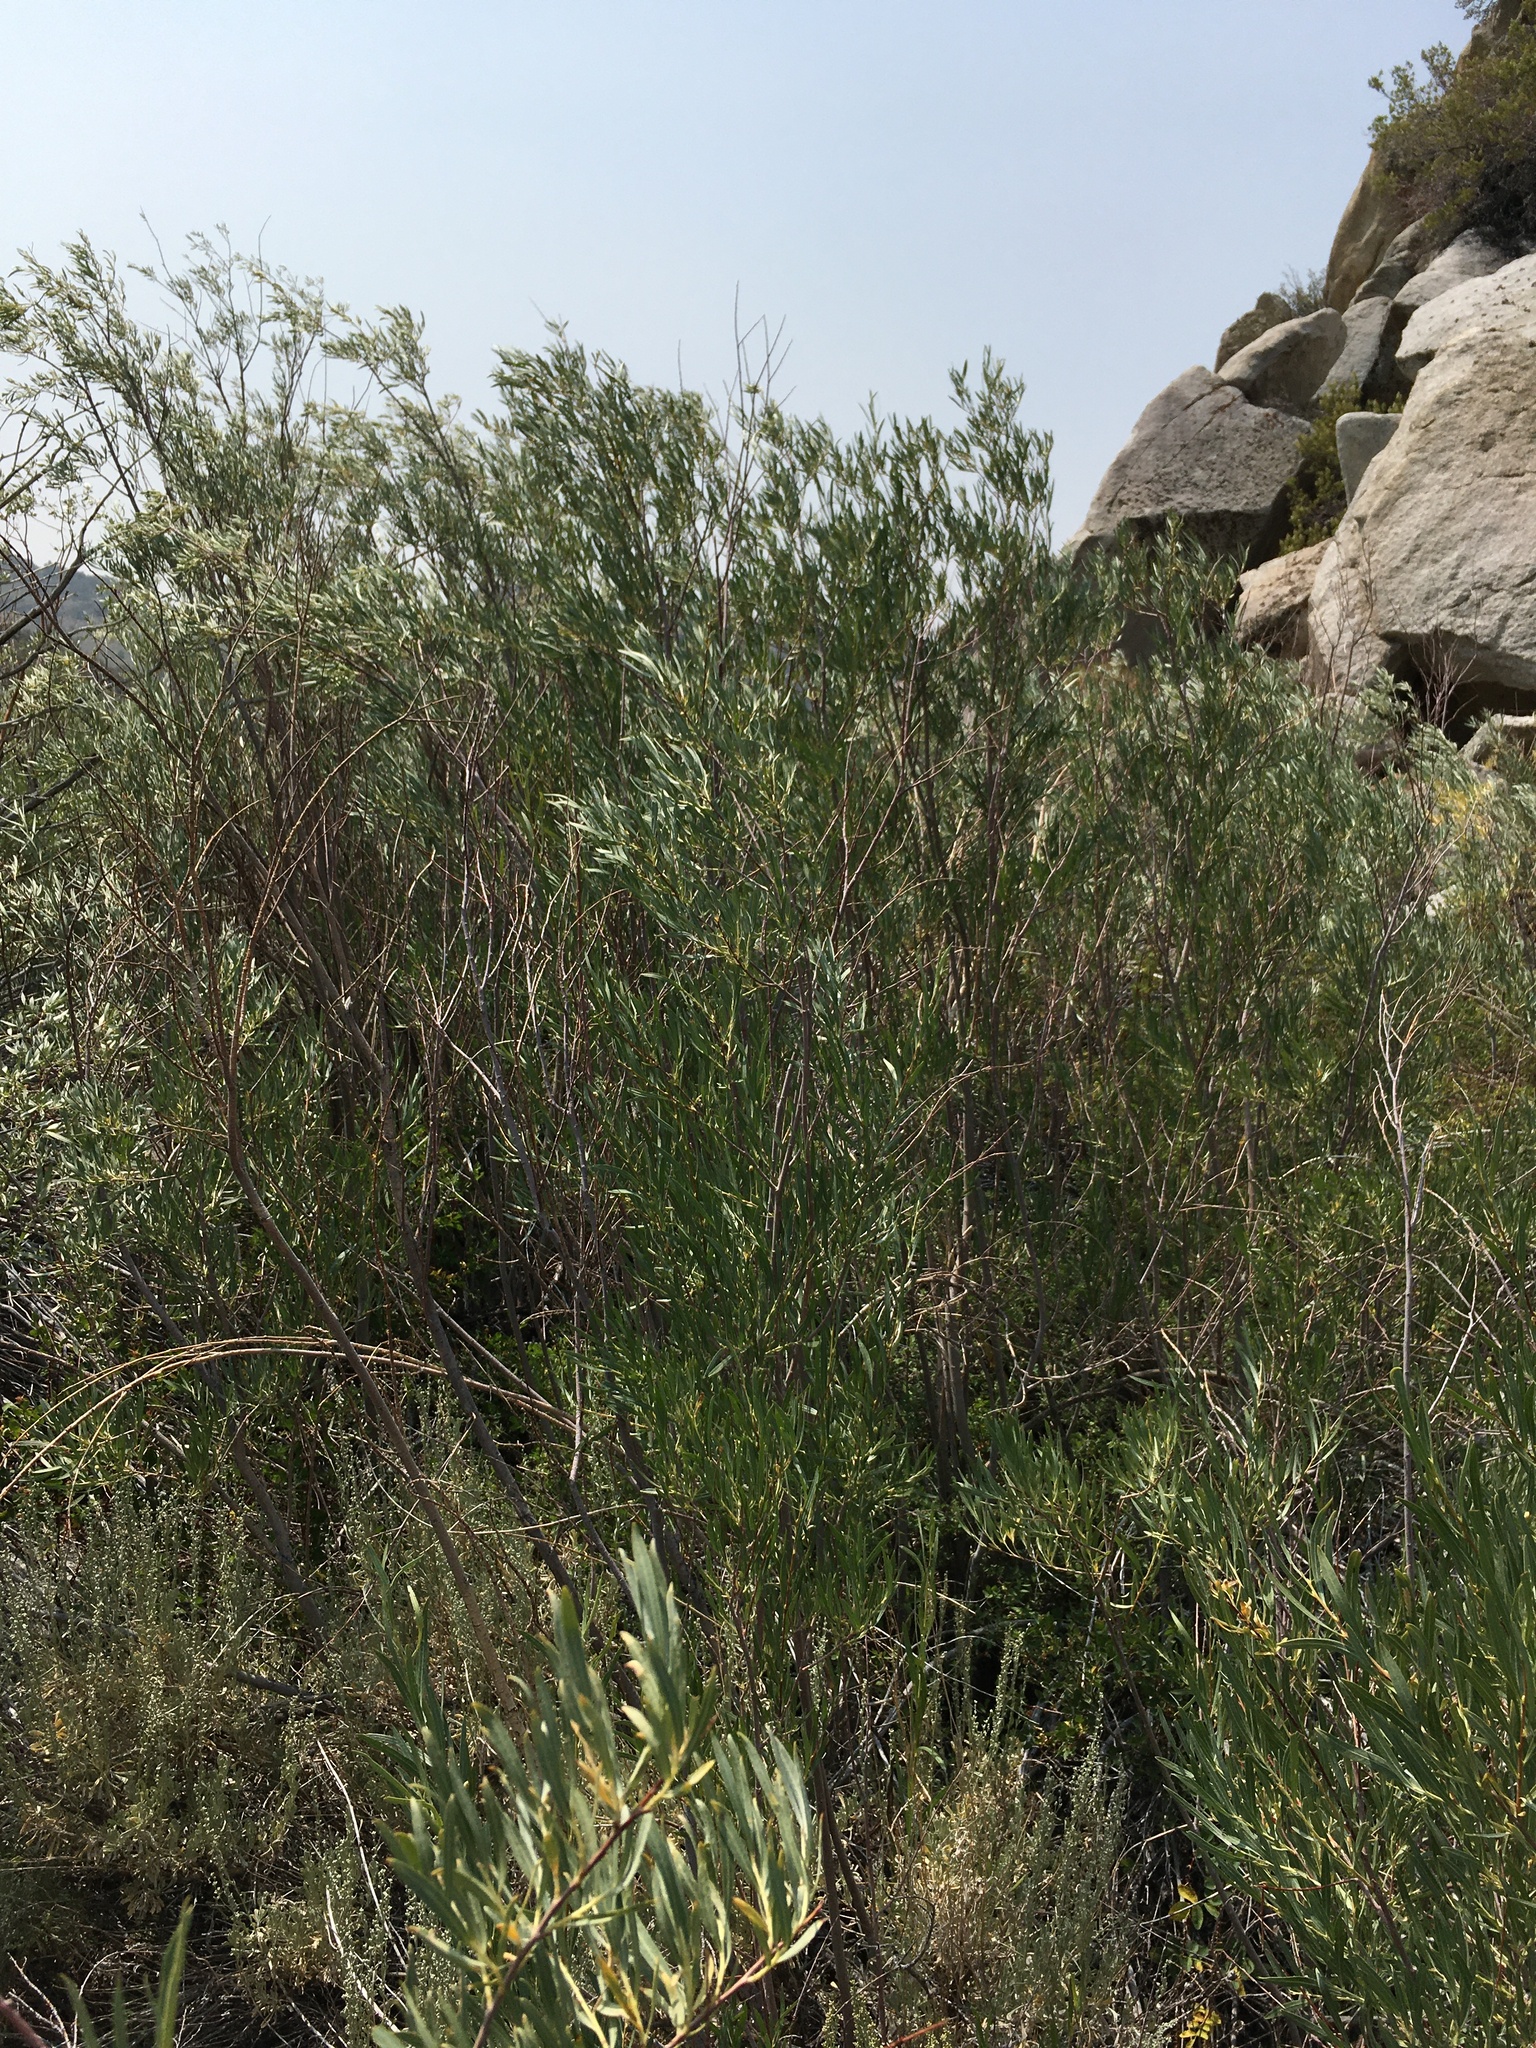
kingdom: Plantae
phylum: Tracheophyta
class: Magnoliopsida
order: Malpighiales
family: Salicaceae
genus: Salix
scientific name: Salix exigua
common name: Coyote willow
